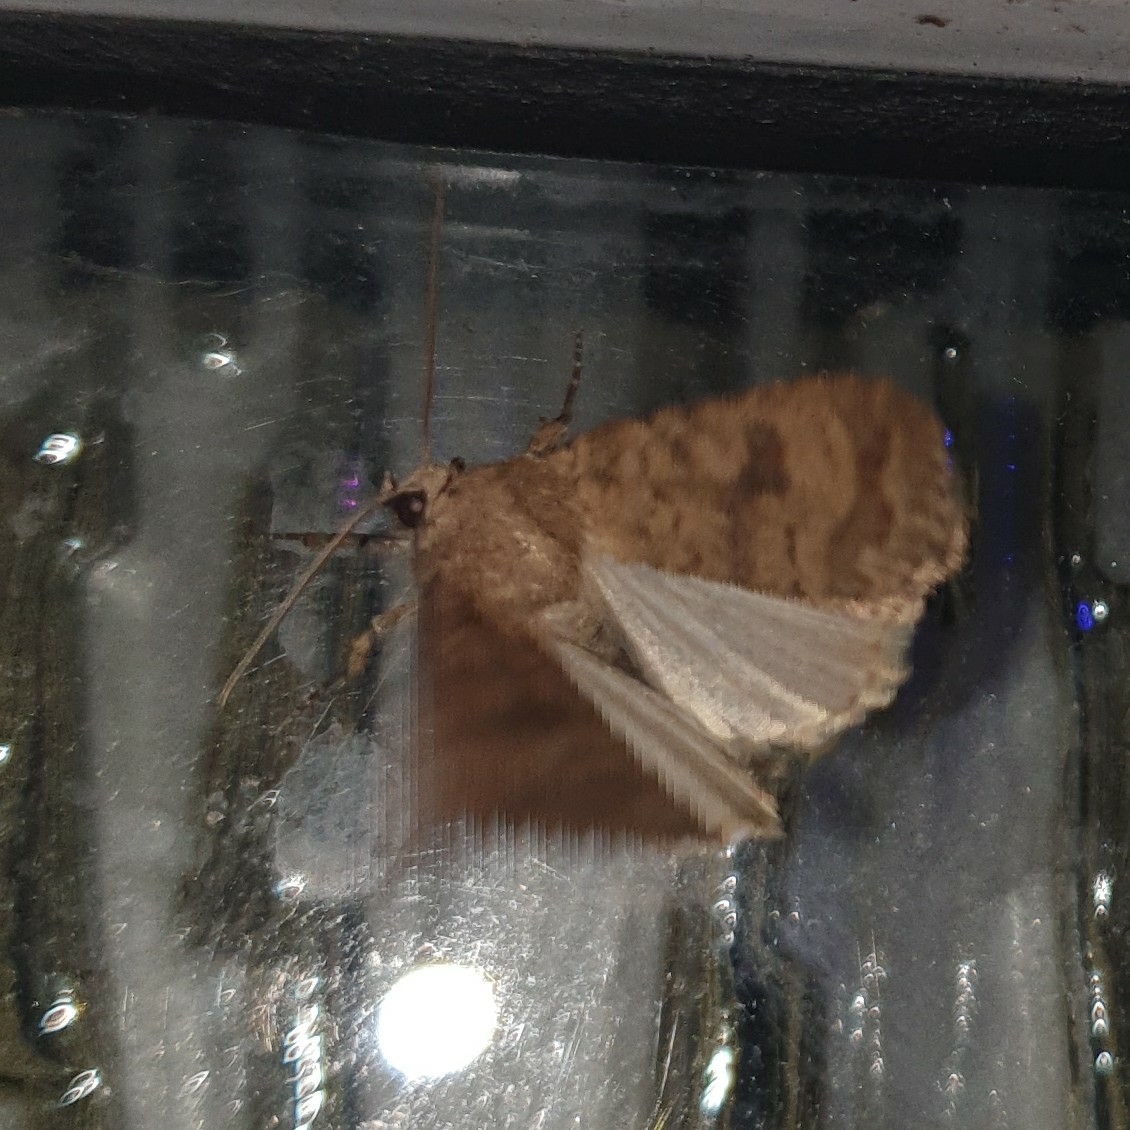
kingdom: Animalia
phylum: Arthropoda
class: Insecta
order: Lepidoptera
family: Noctuidae
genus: Caradrina
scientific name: Caradrina morpheus
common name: Mottled rustic
